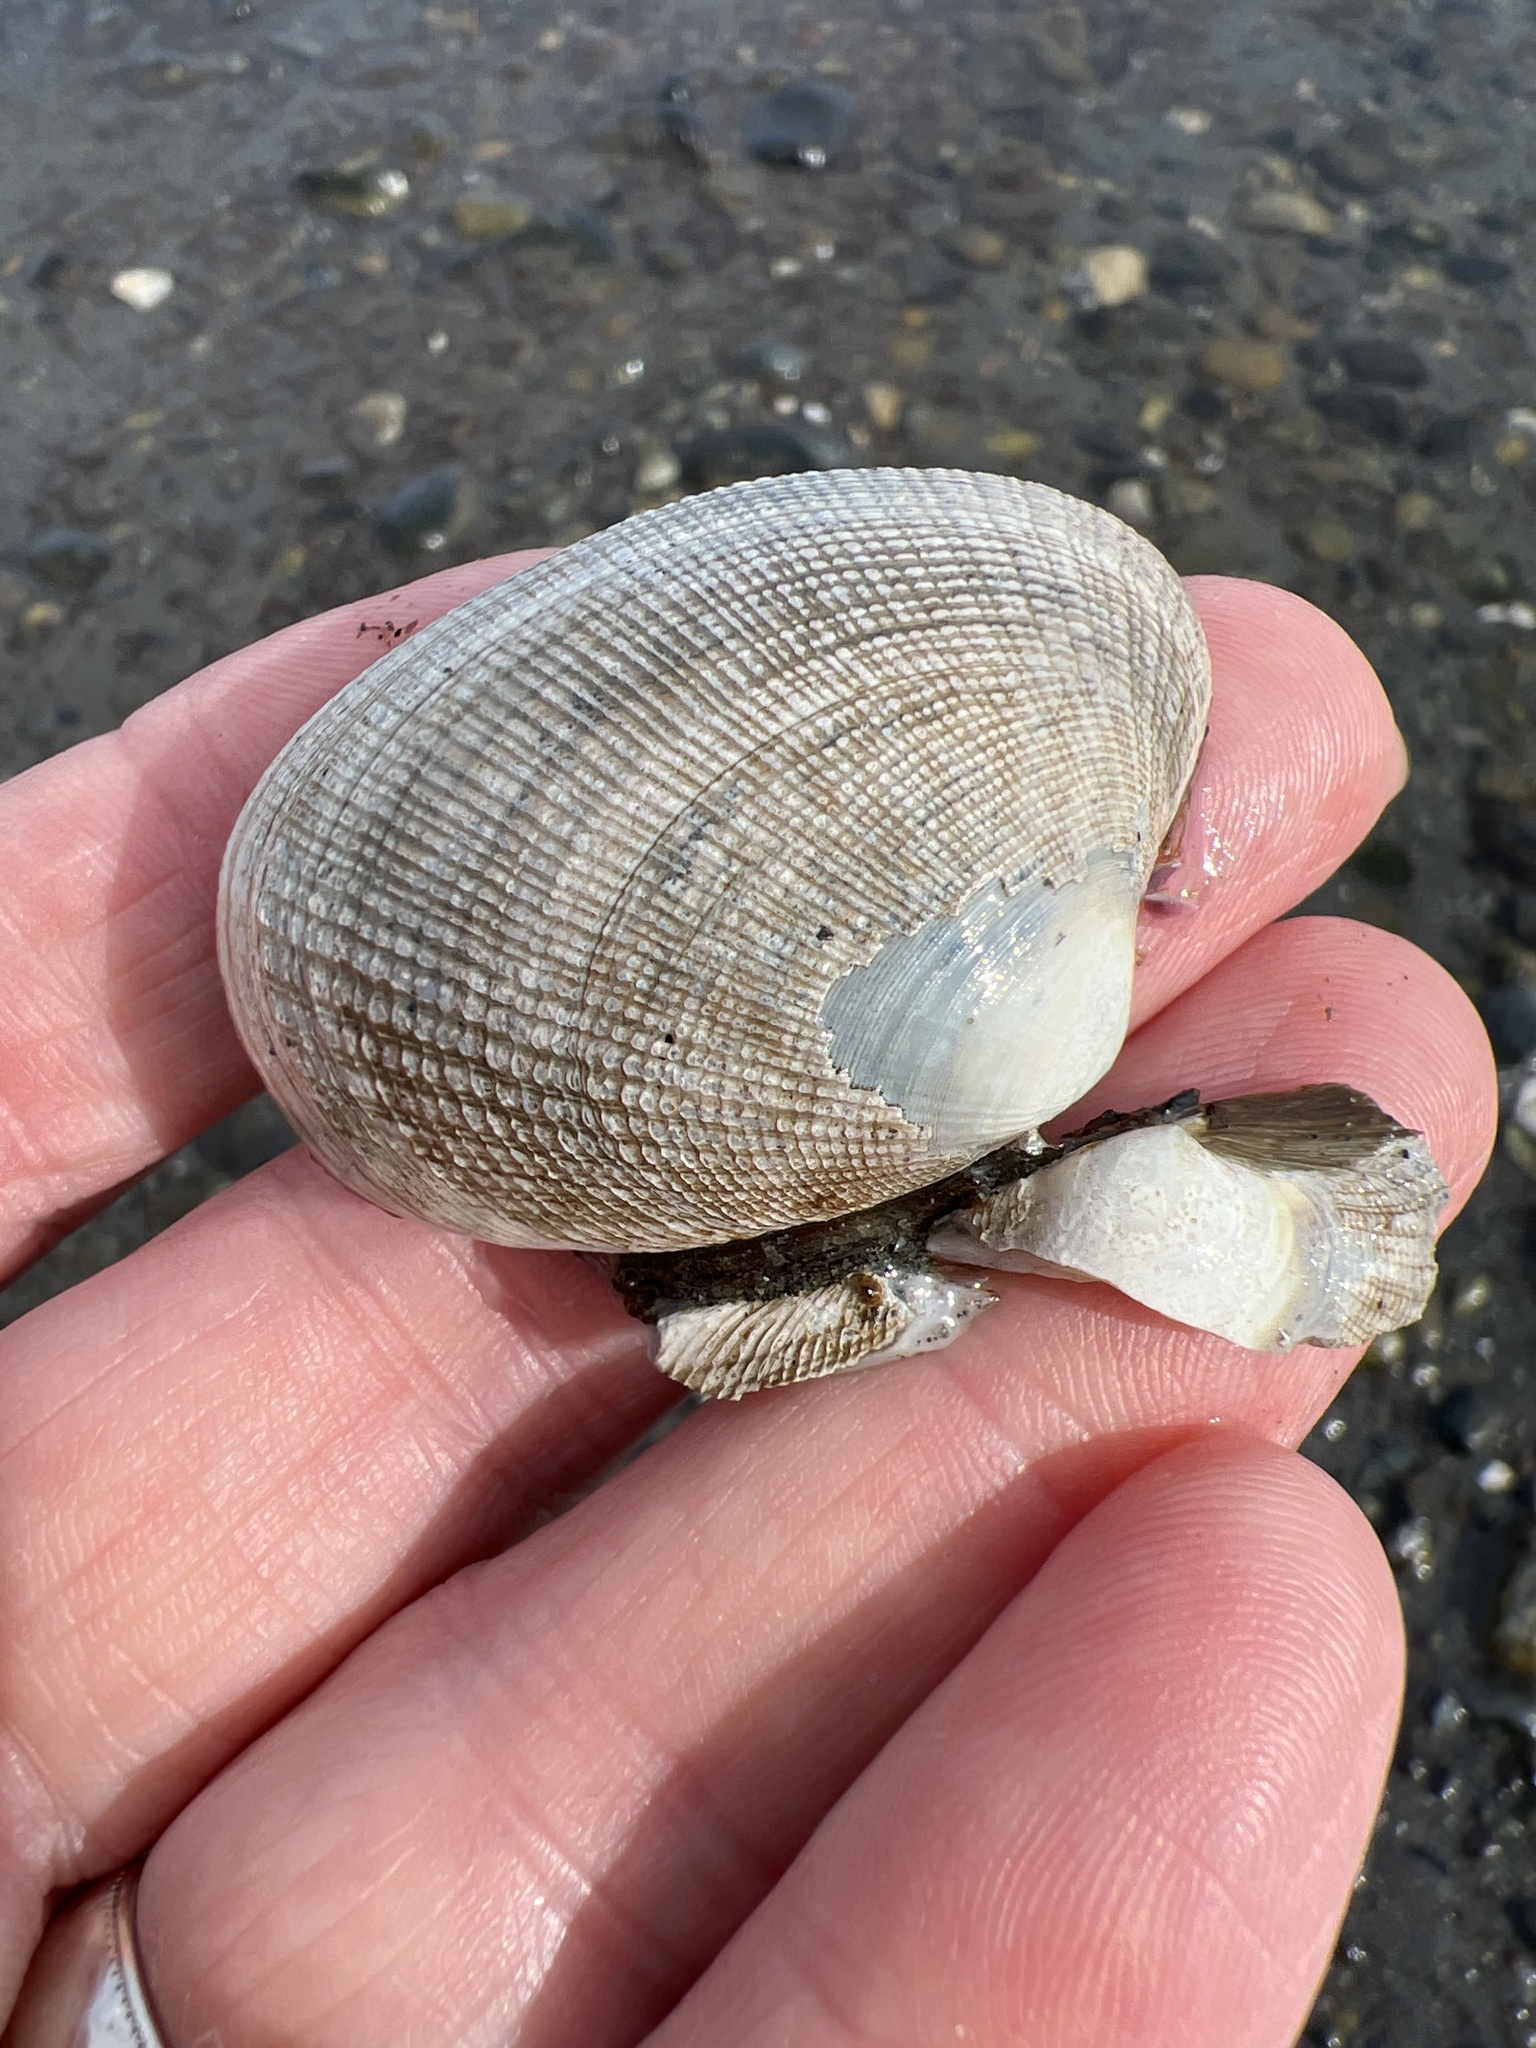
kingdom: Animalia
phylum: Mollusca
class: Bivalvia
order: Venerida
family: Veneridae
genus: Ruditapes
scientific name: Ruditapes philippinarum
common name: Manila clam
